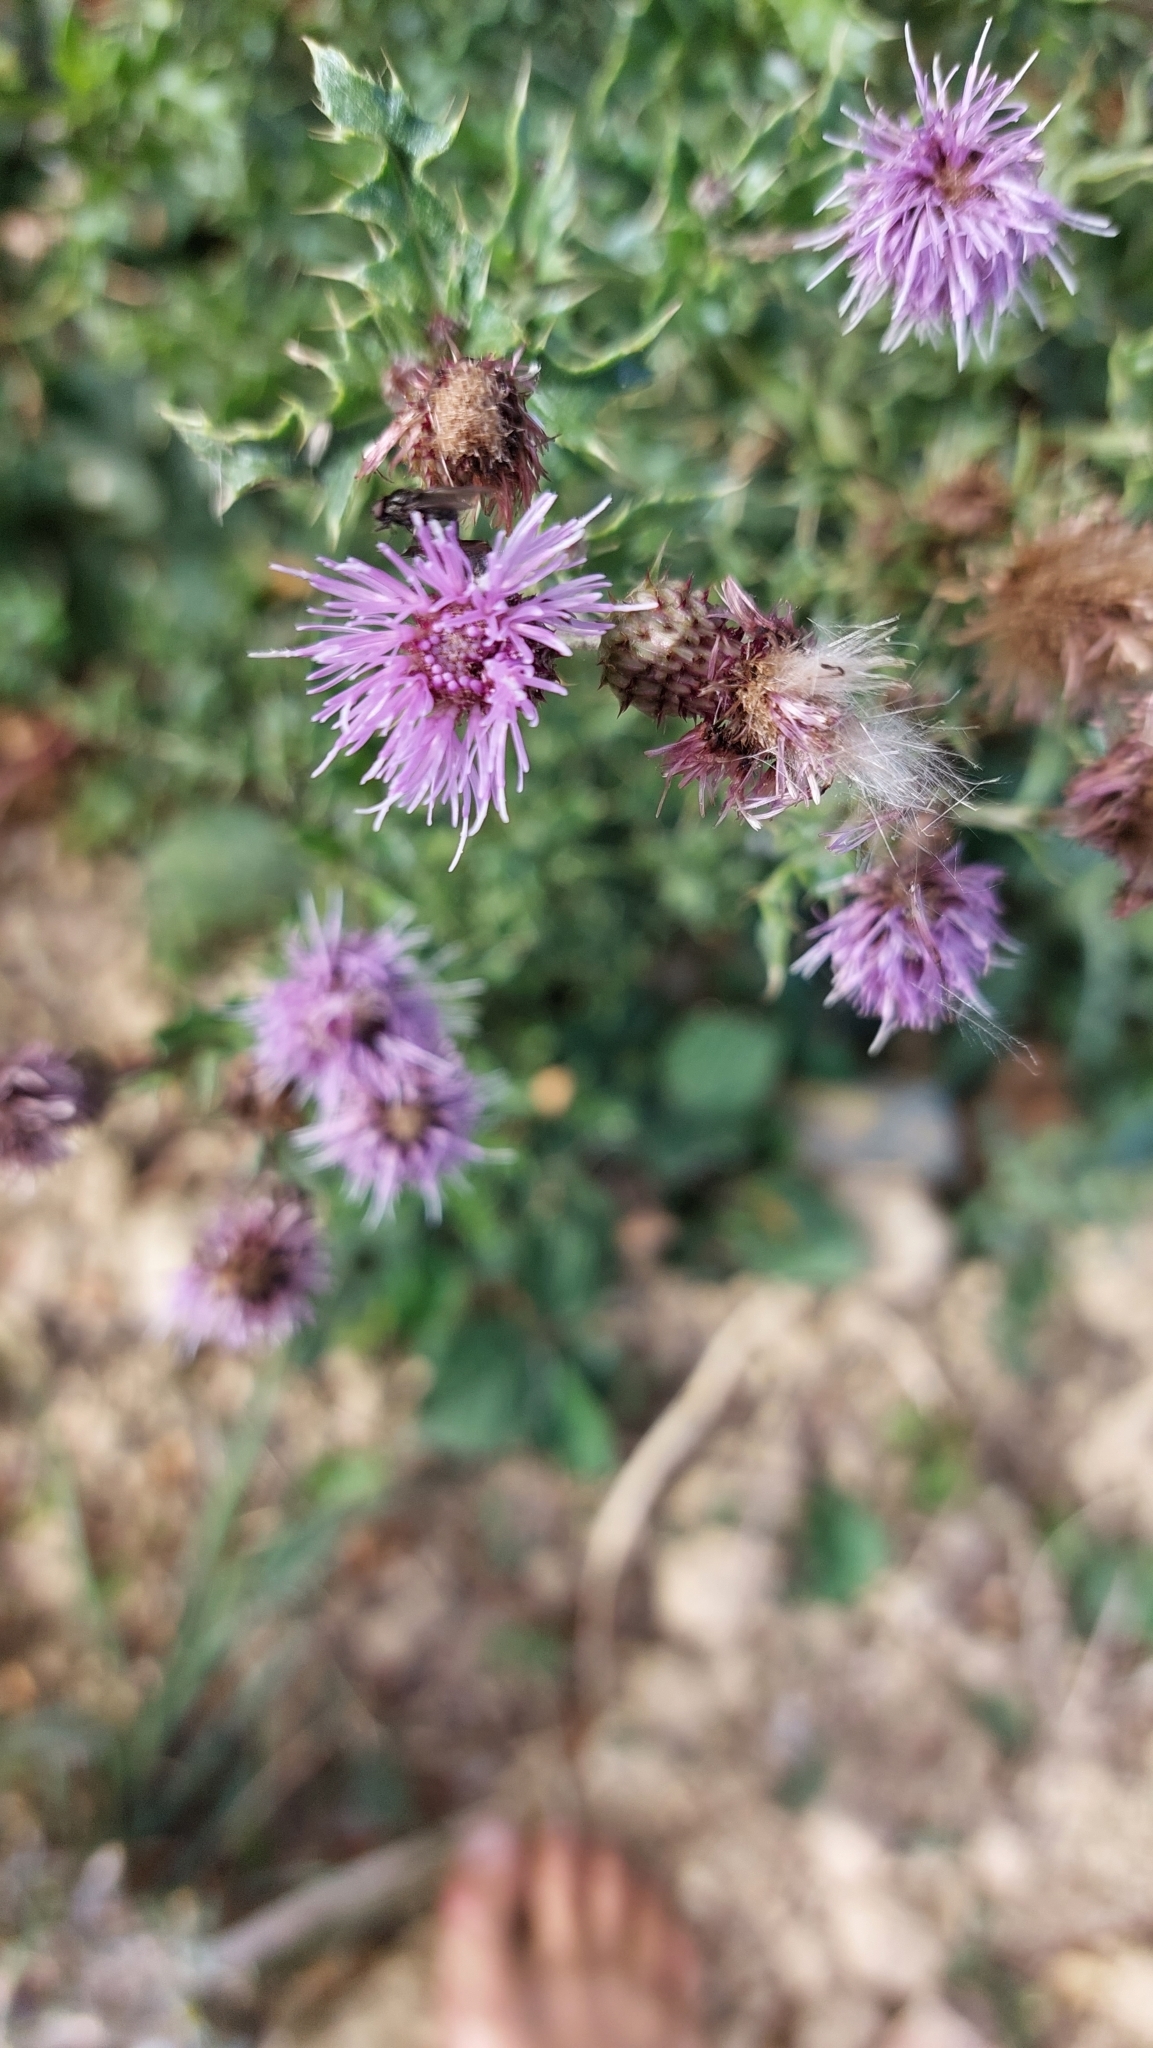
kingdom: Plantae
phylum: Tracheophyta
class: Magnoliopsida
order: Asterales
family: Asteraceae
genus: Cirsium
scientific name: Cirsium arvense
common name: Creeping thistle
